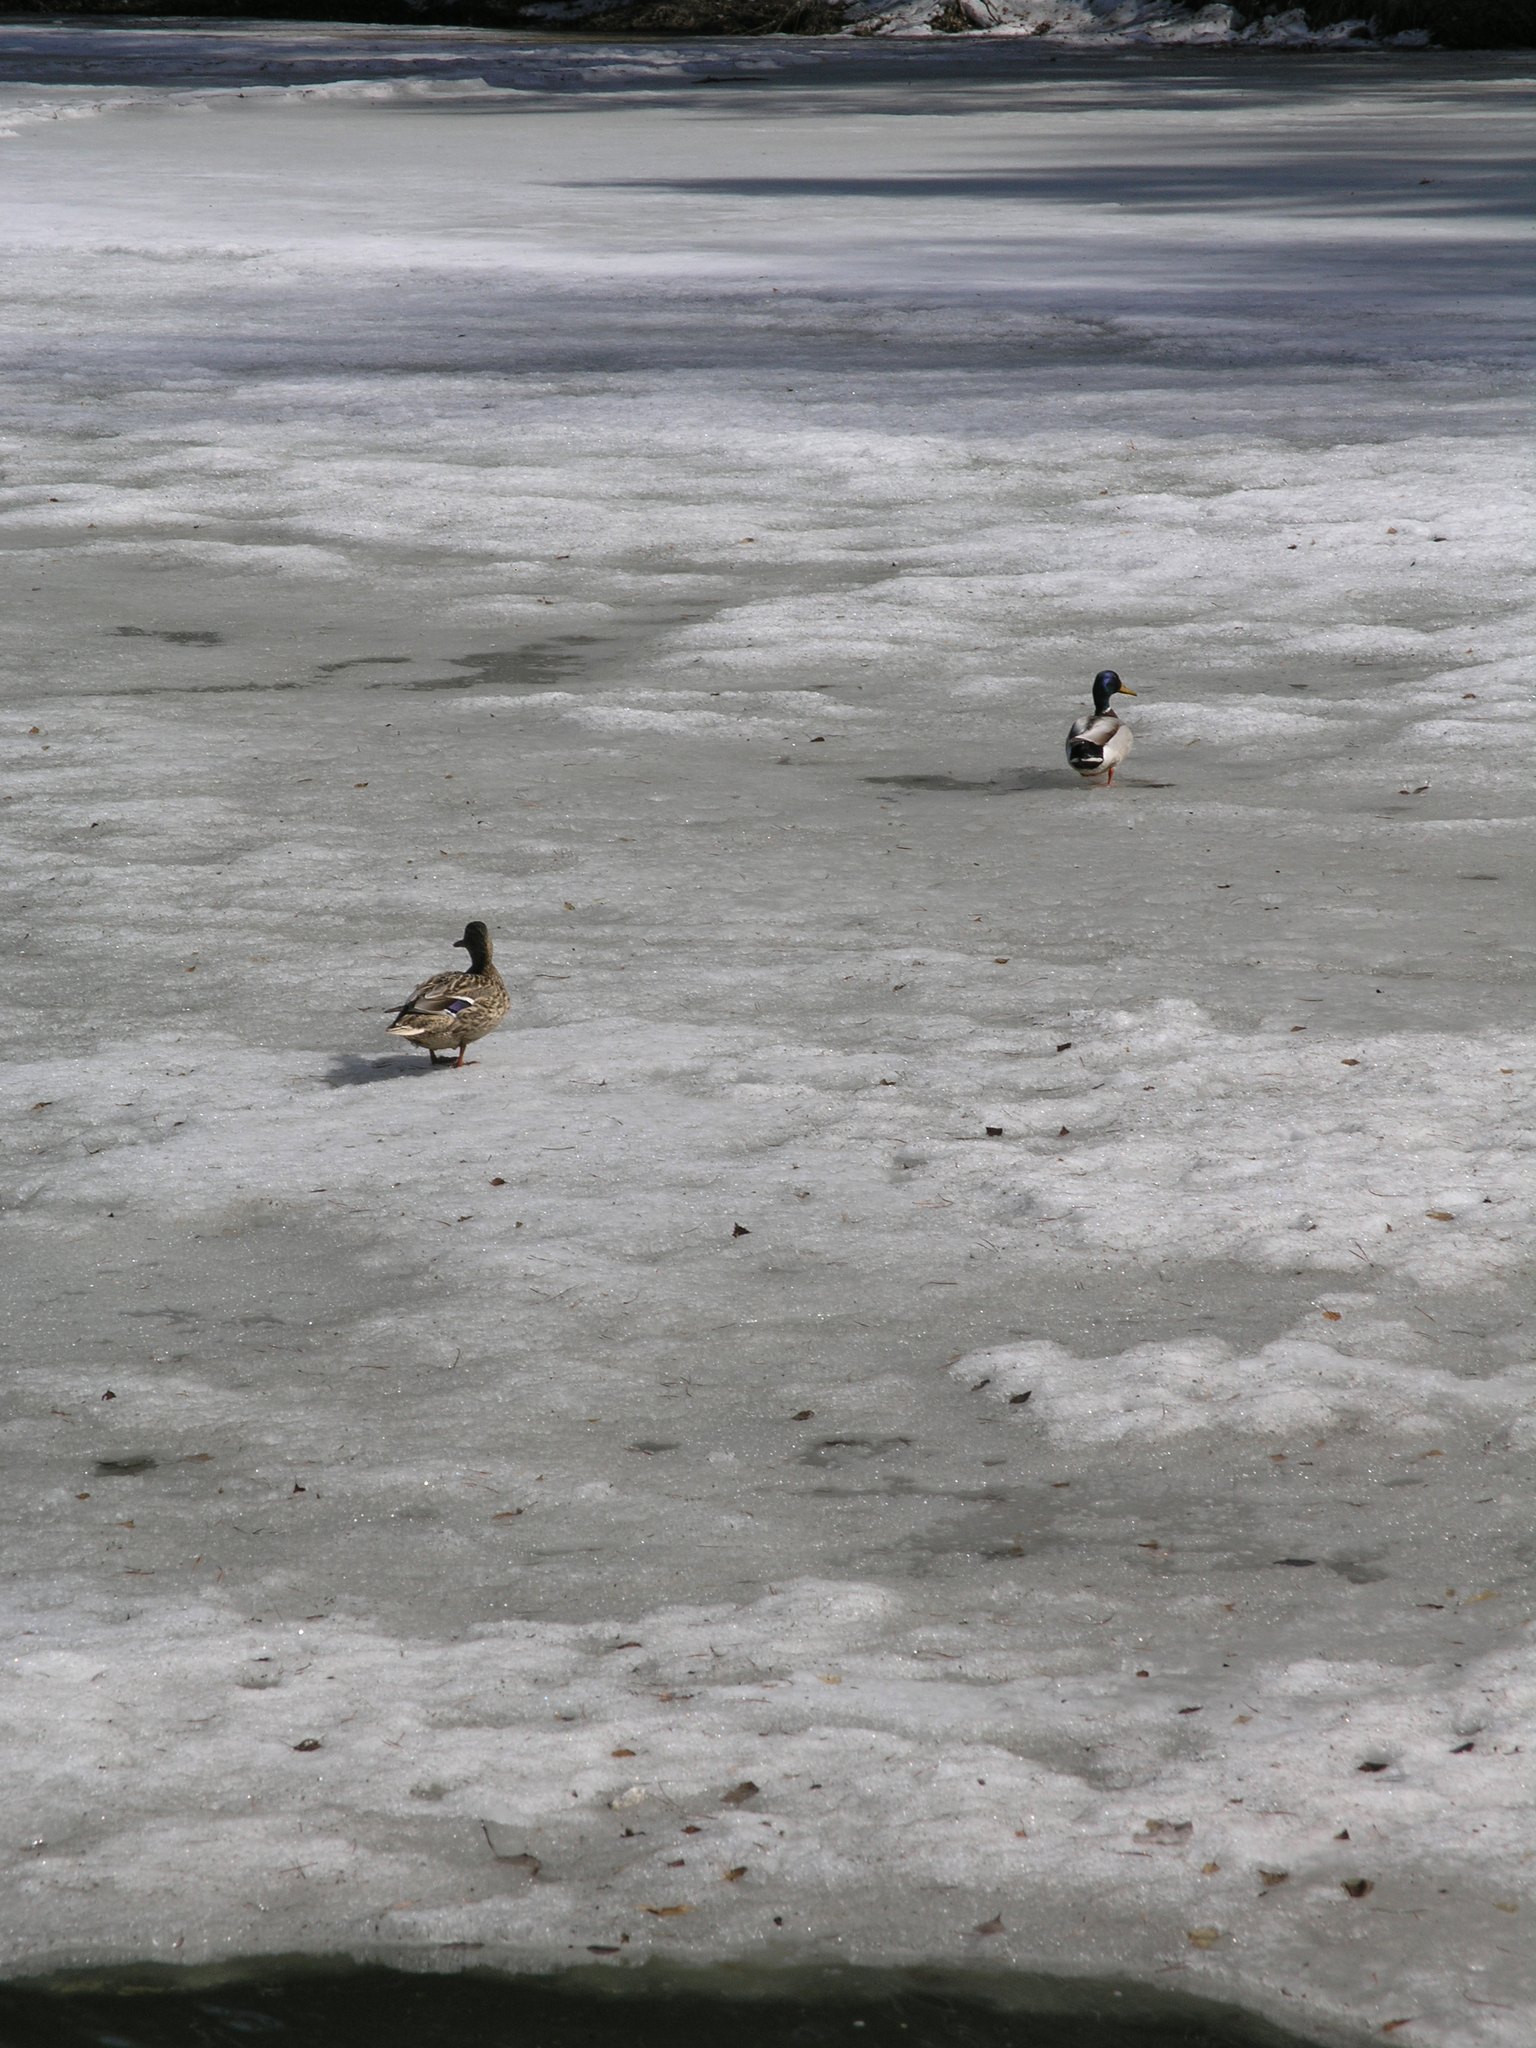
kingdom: Animalia
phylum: Chordata
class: Aves
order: Anseriformes
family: Anatidae
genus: Anas
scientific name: Anas platyrhynchos
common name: Mallard
